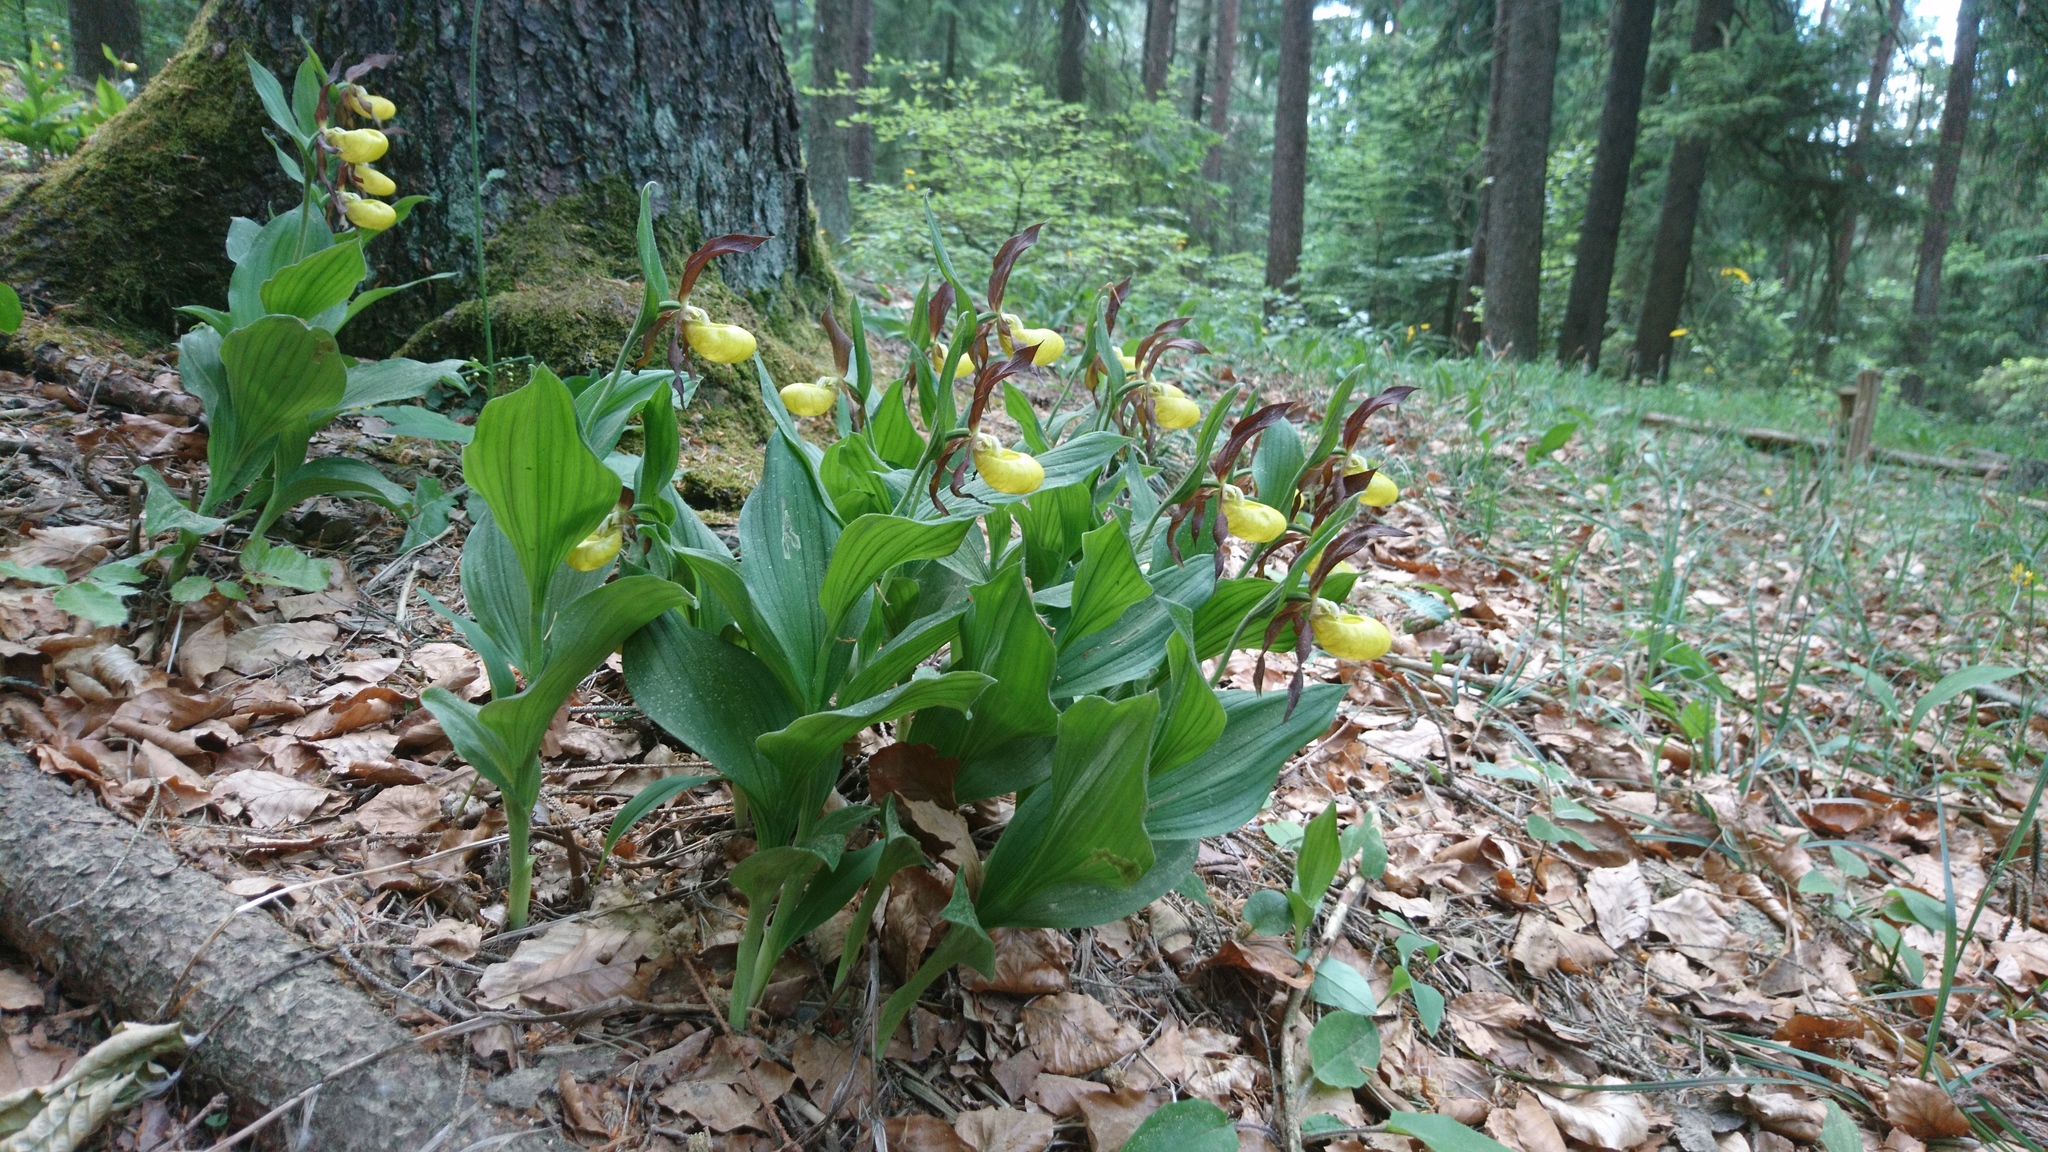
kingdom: Plantae
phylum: Tracheophyta
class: Liliopsida
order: Asparagales
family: Orchidaceae
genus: Cypripedium
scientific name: Cypripedium calceolus
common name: Lady's-slipper
